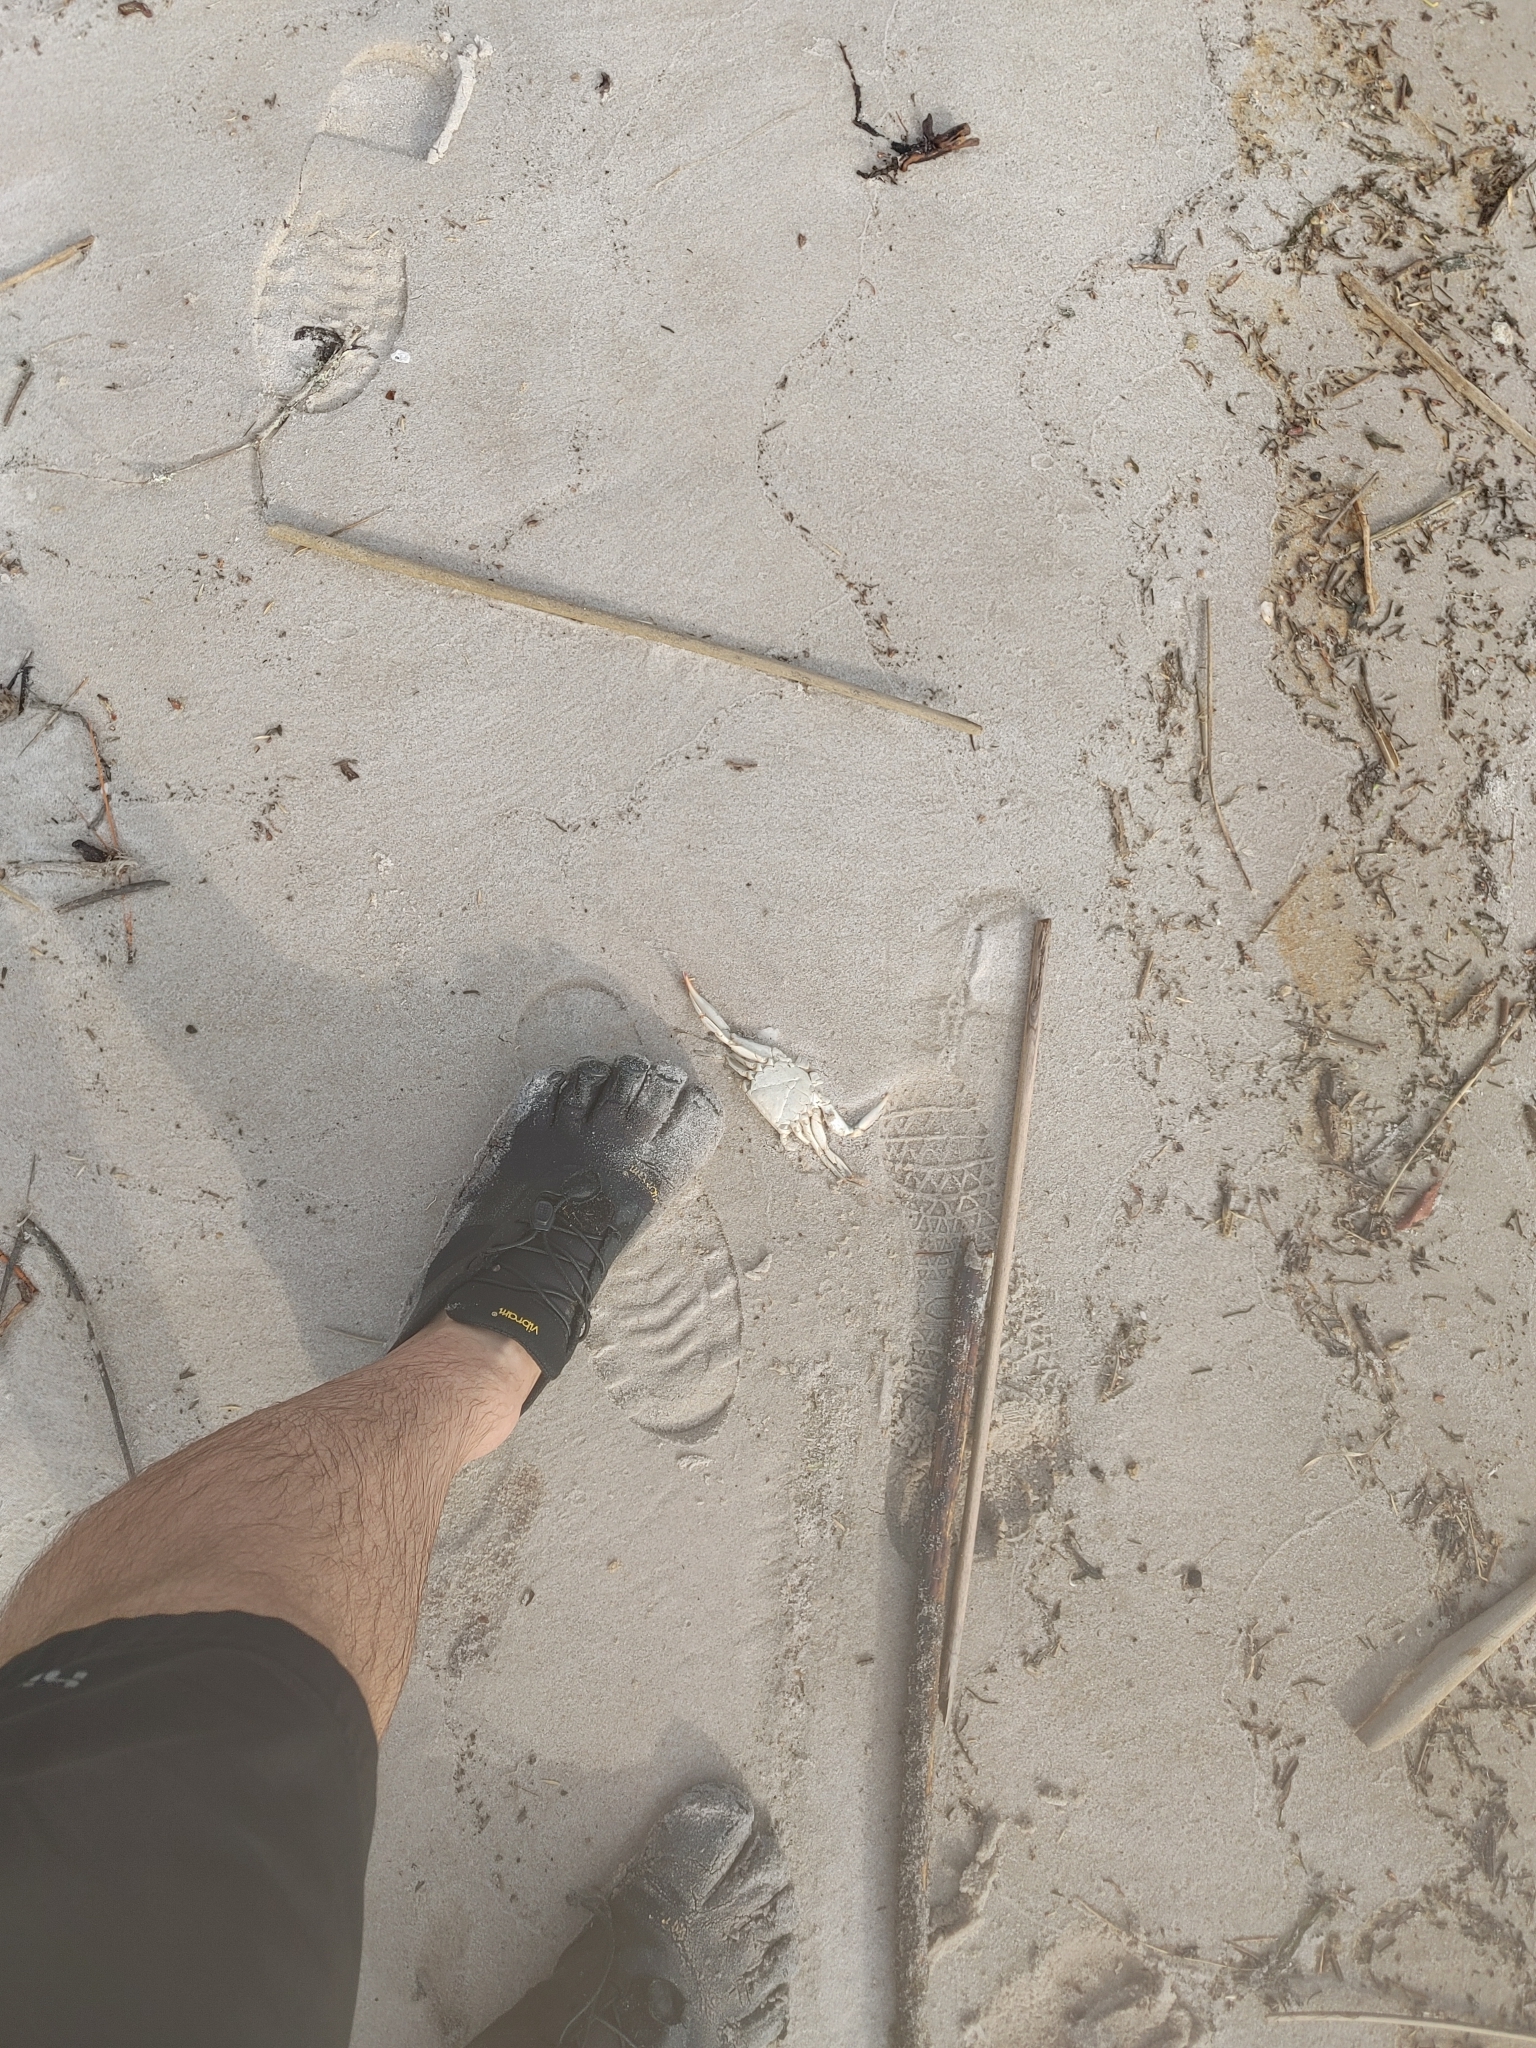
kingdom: Animalia
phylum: Arthropoda
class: Malacostraca
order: Decapoda
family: Portunidae
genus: Callinectes
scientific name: Callinectes sapidus
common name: Blue crab
